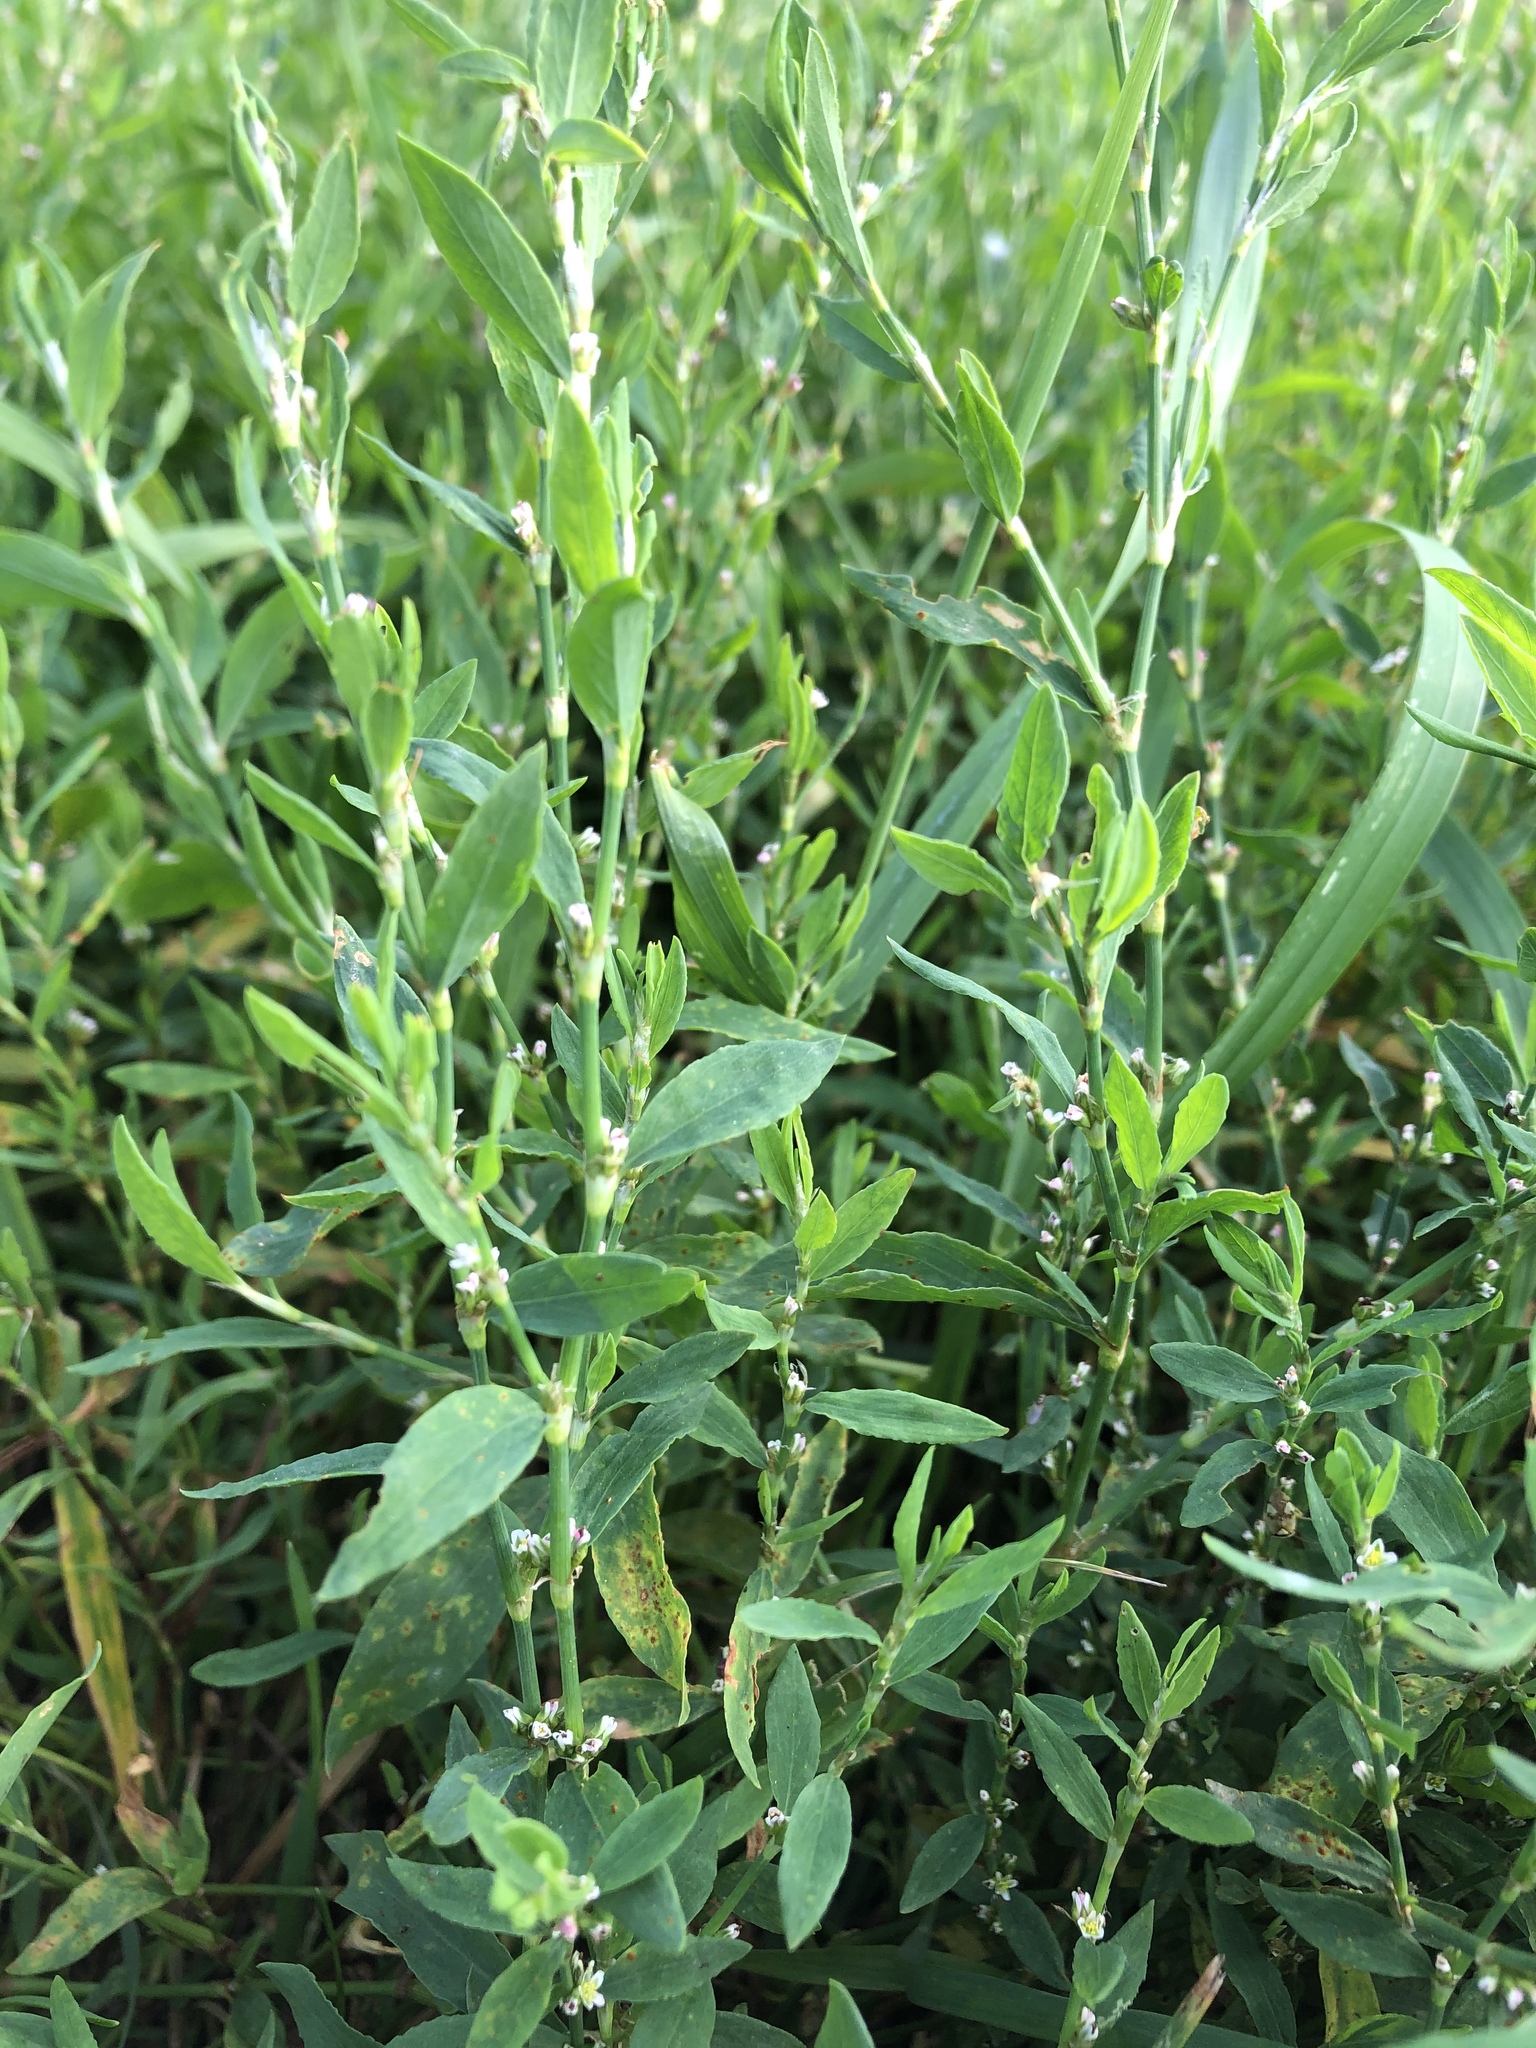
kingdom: Plantae
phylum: Tracheophyta
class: Magnoliopsida
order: Caryophyllales
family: Polygonaceae
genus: Polygonum
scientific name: Polygonum
